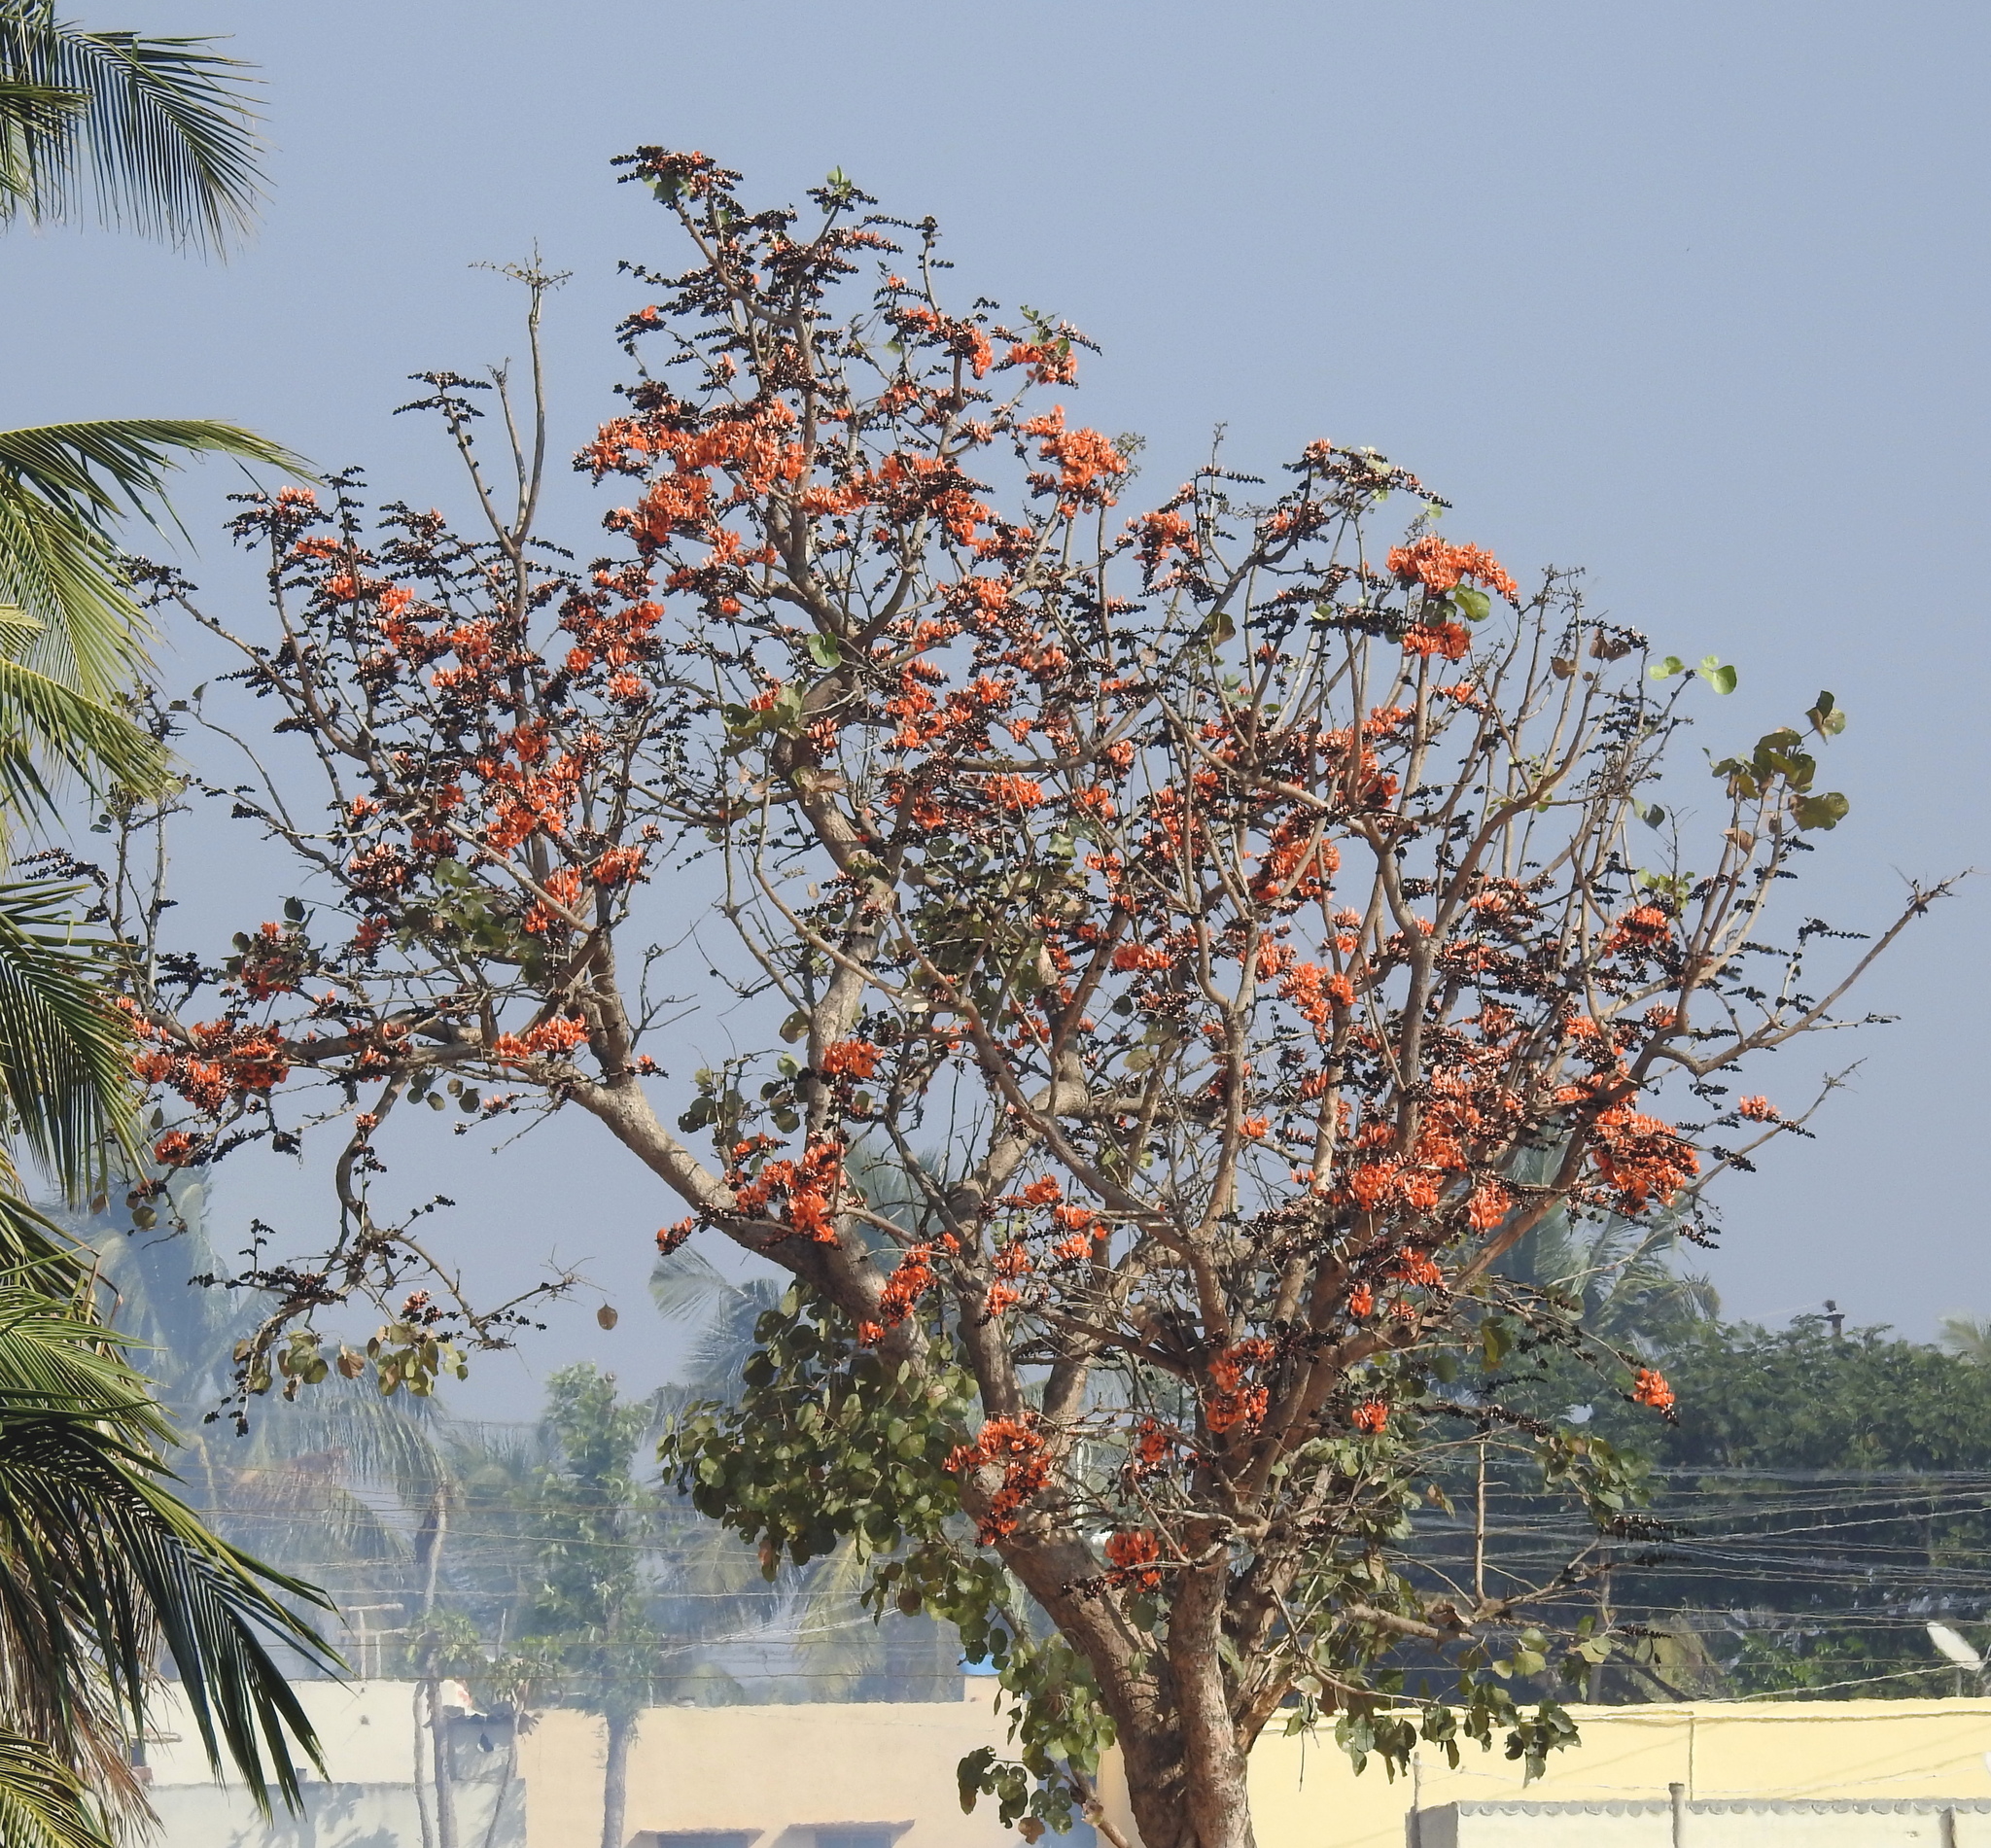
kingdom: Plantae
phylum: Tracheophyta
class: Magnoliopsida
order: Fabales
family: Fabaceae
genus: Butea
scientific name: Butea monosperma
